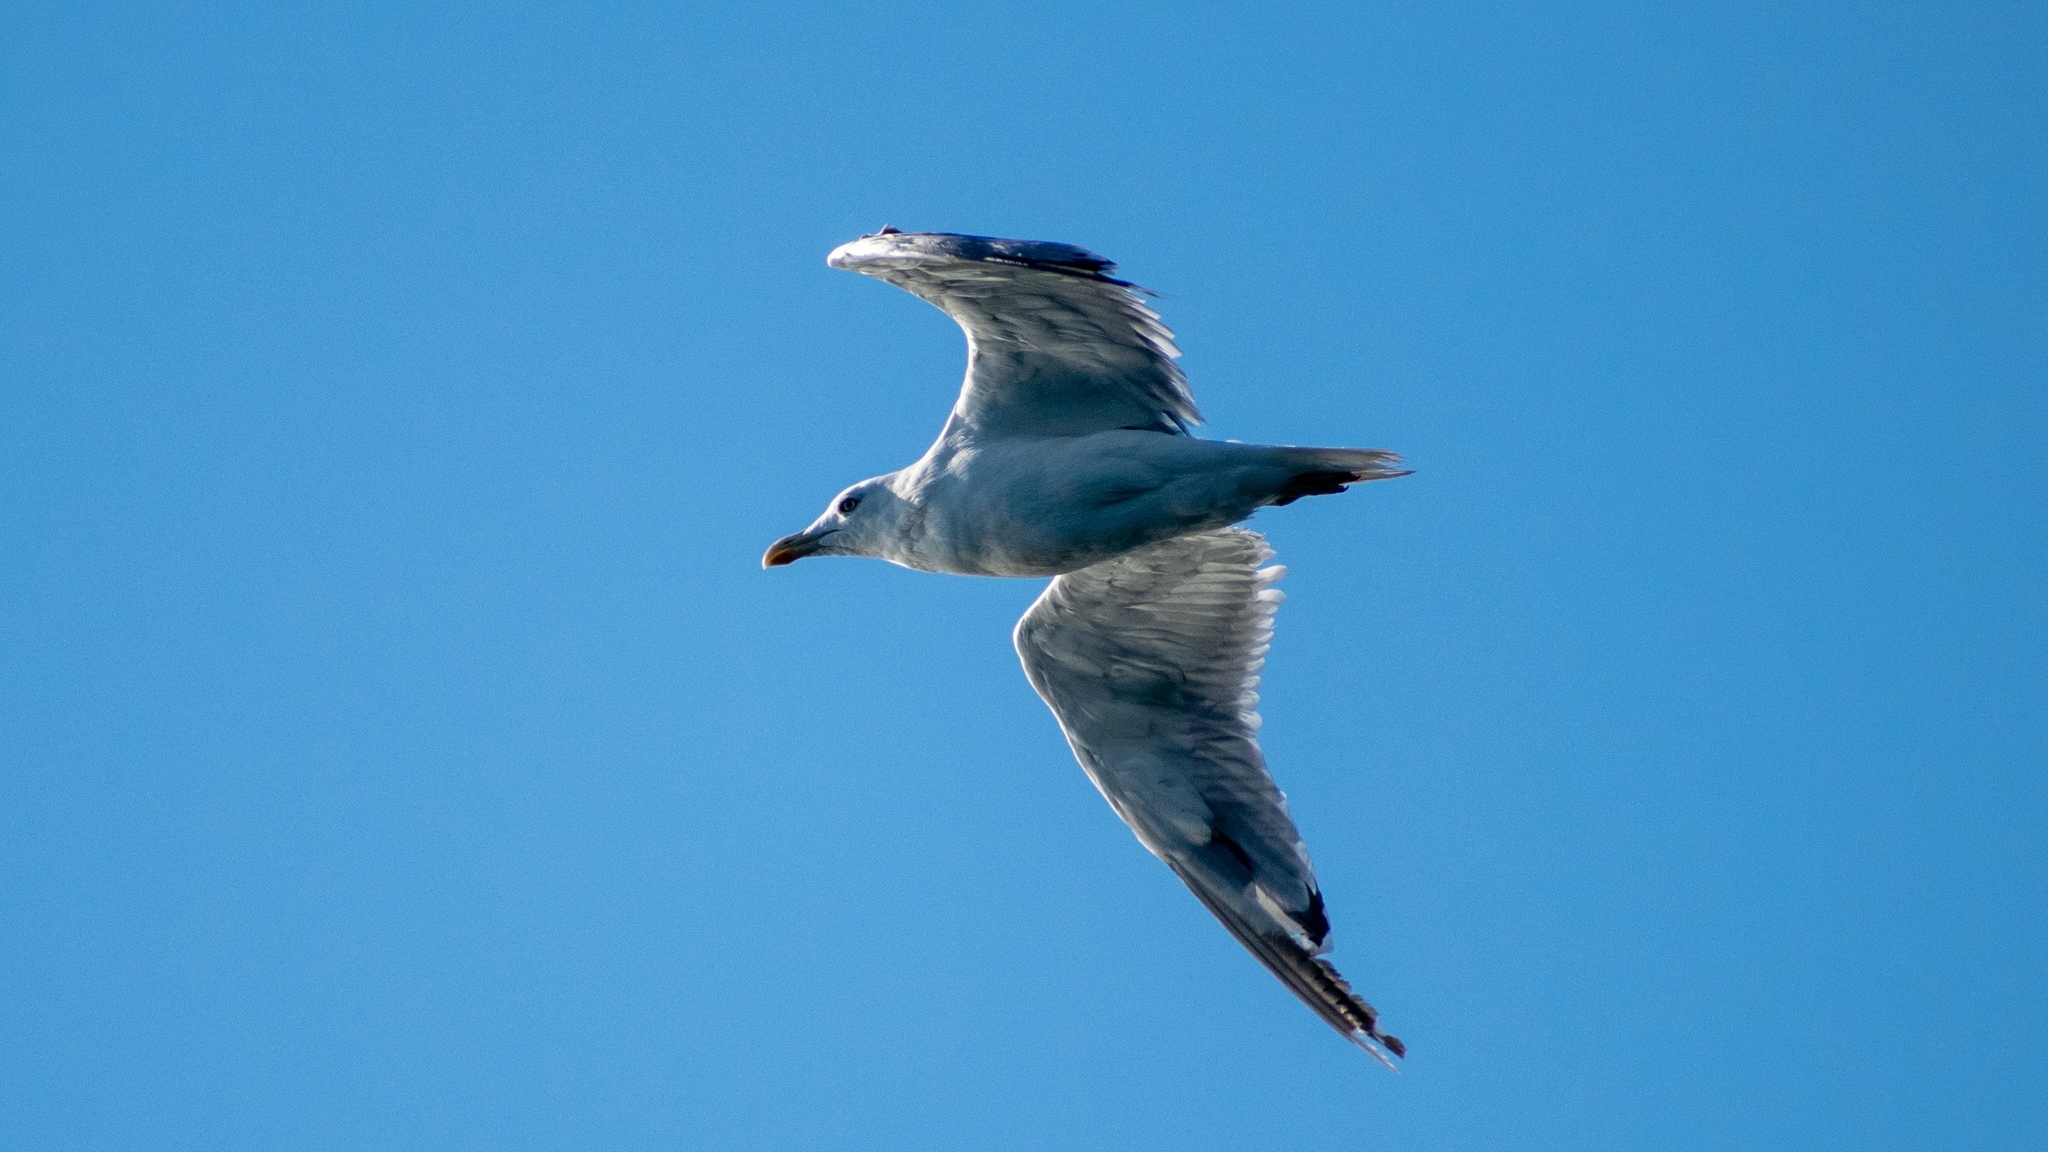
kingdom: Animalia
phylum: Chordata
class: Aves
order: Charadriiformes
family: Laridae
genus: Larus
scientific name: Larus michahellis
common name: Yellow-legged gull
